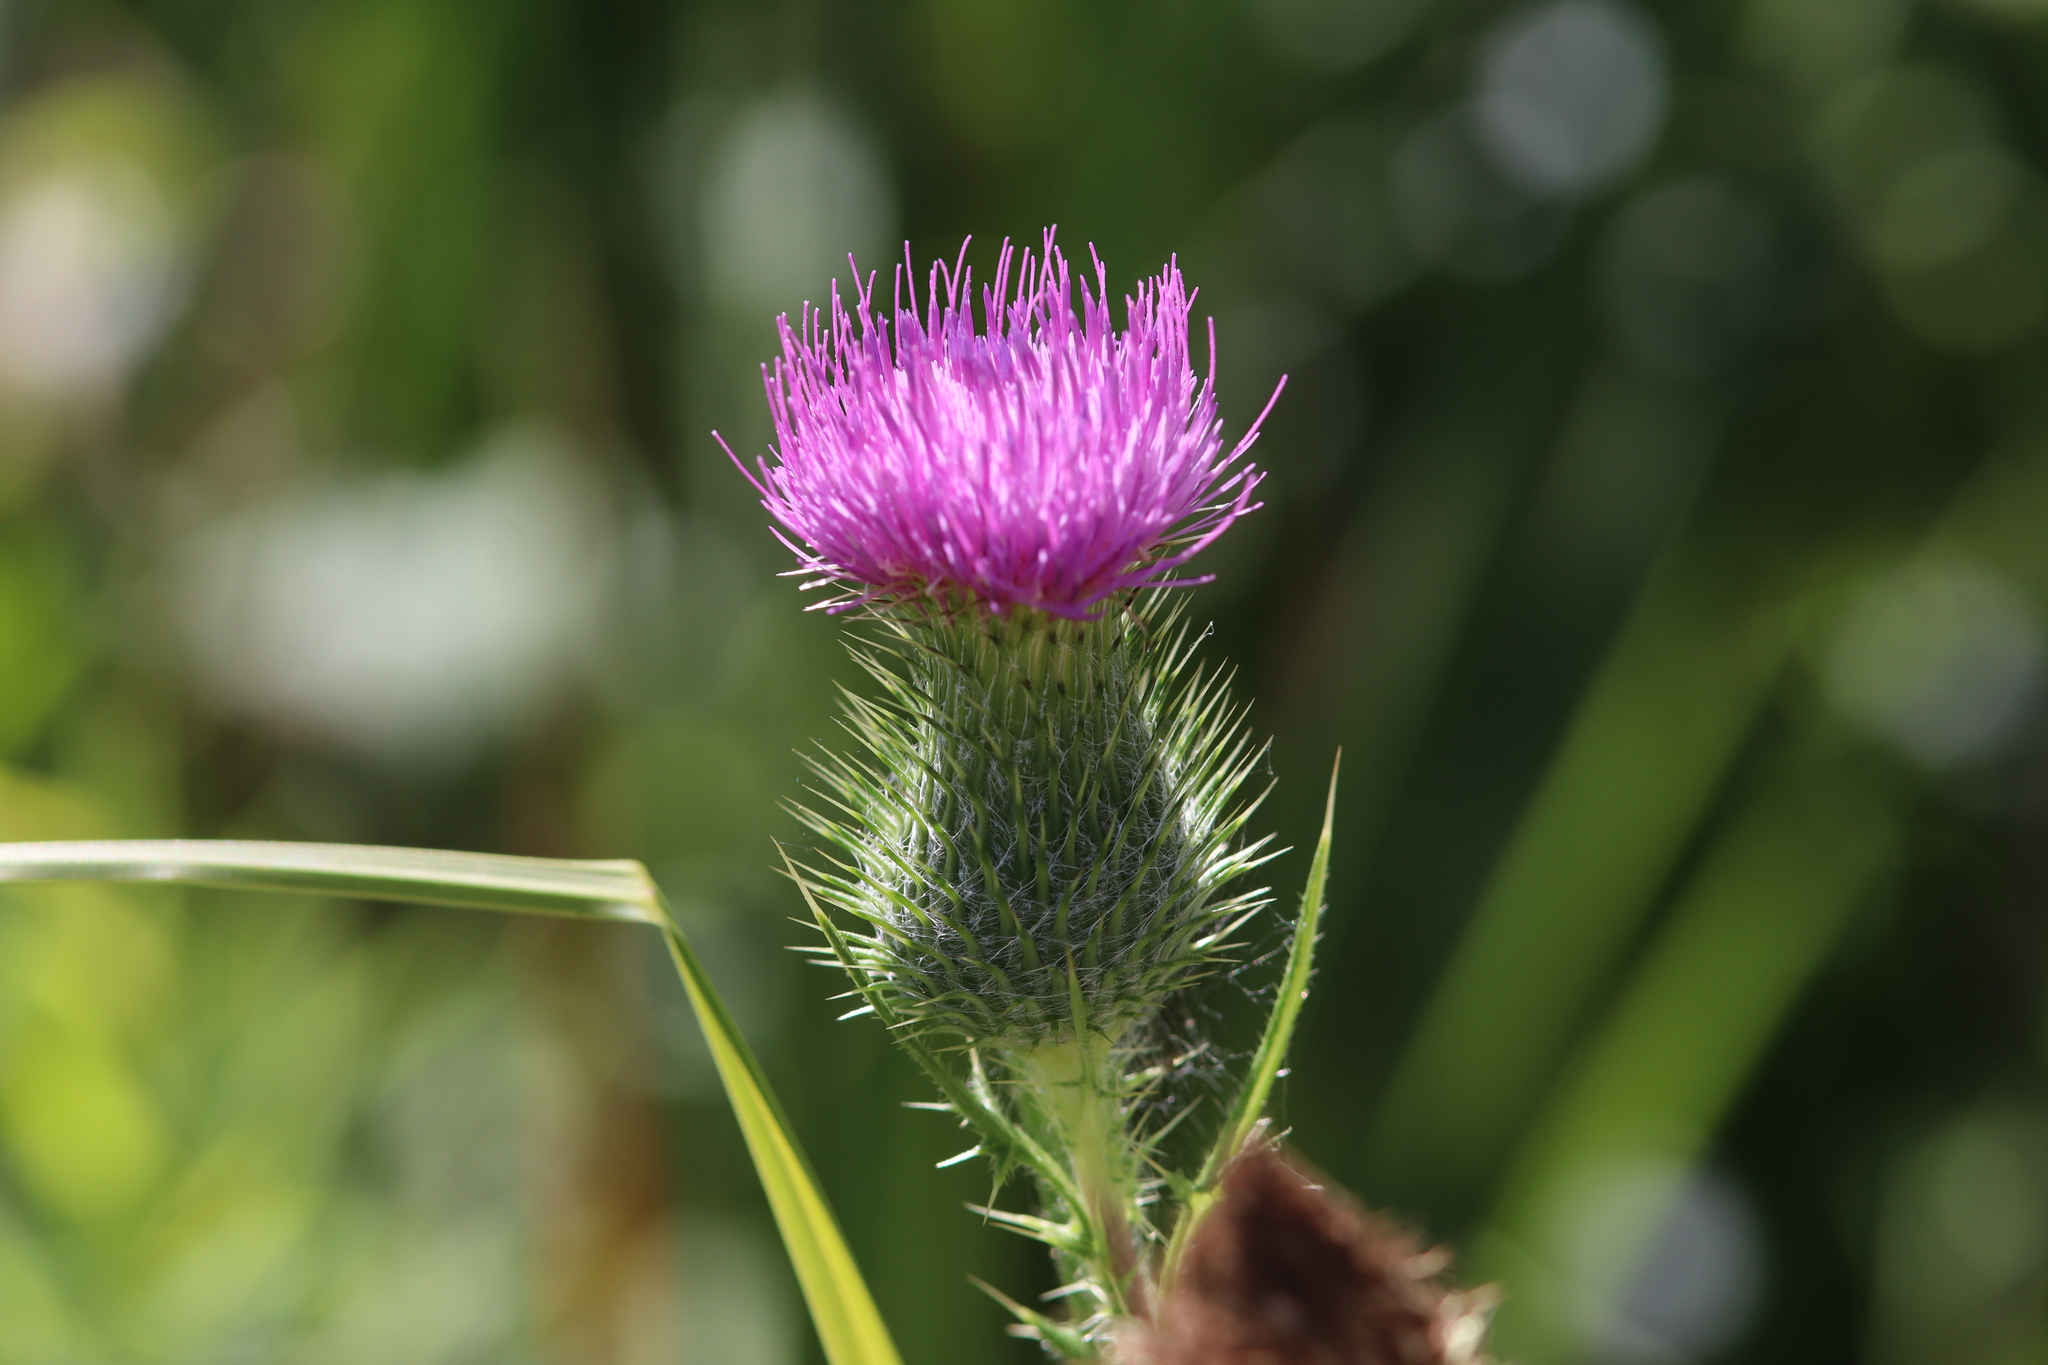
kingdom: Plantae
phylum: Tracheophyta
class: Magnoliopsida
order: Asterales
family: Asteraceae
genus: Cirsium
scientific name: Cirsium vulgare
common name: Bull thistle
